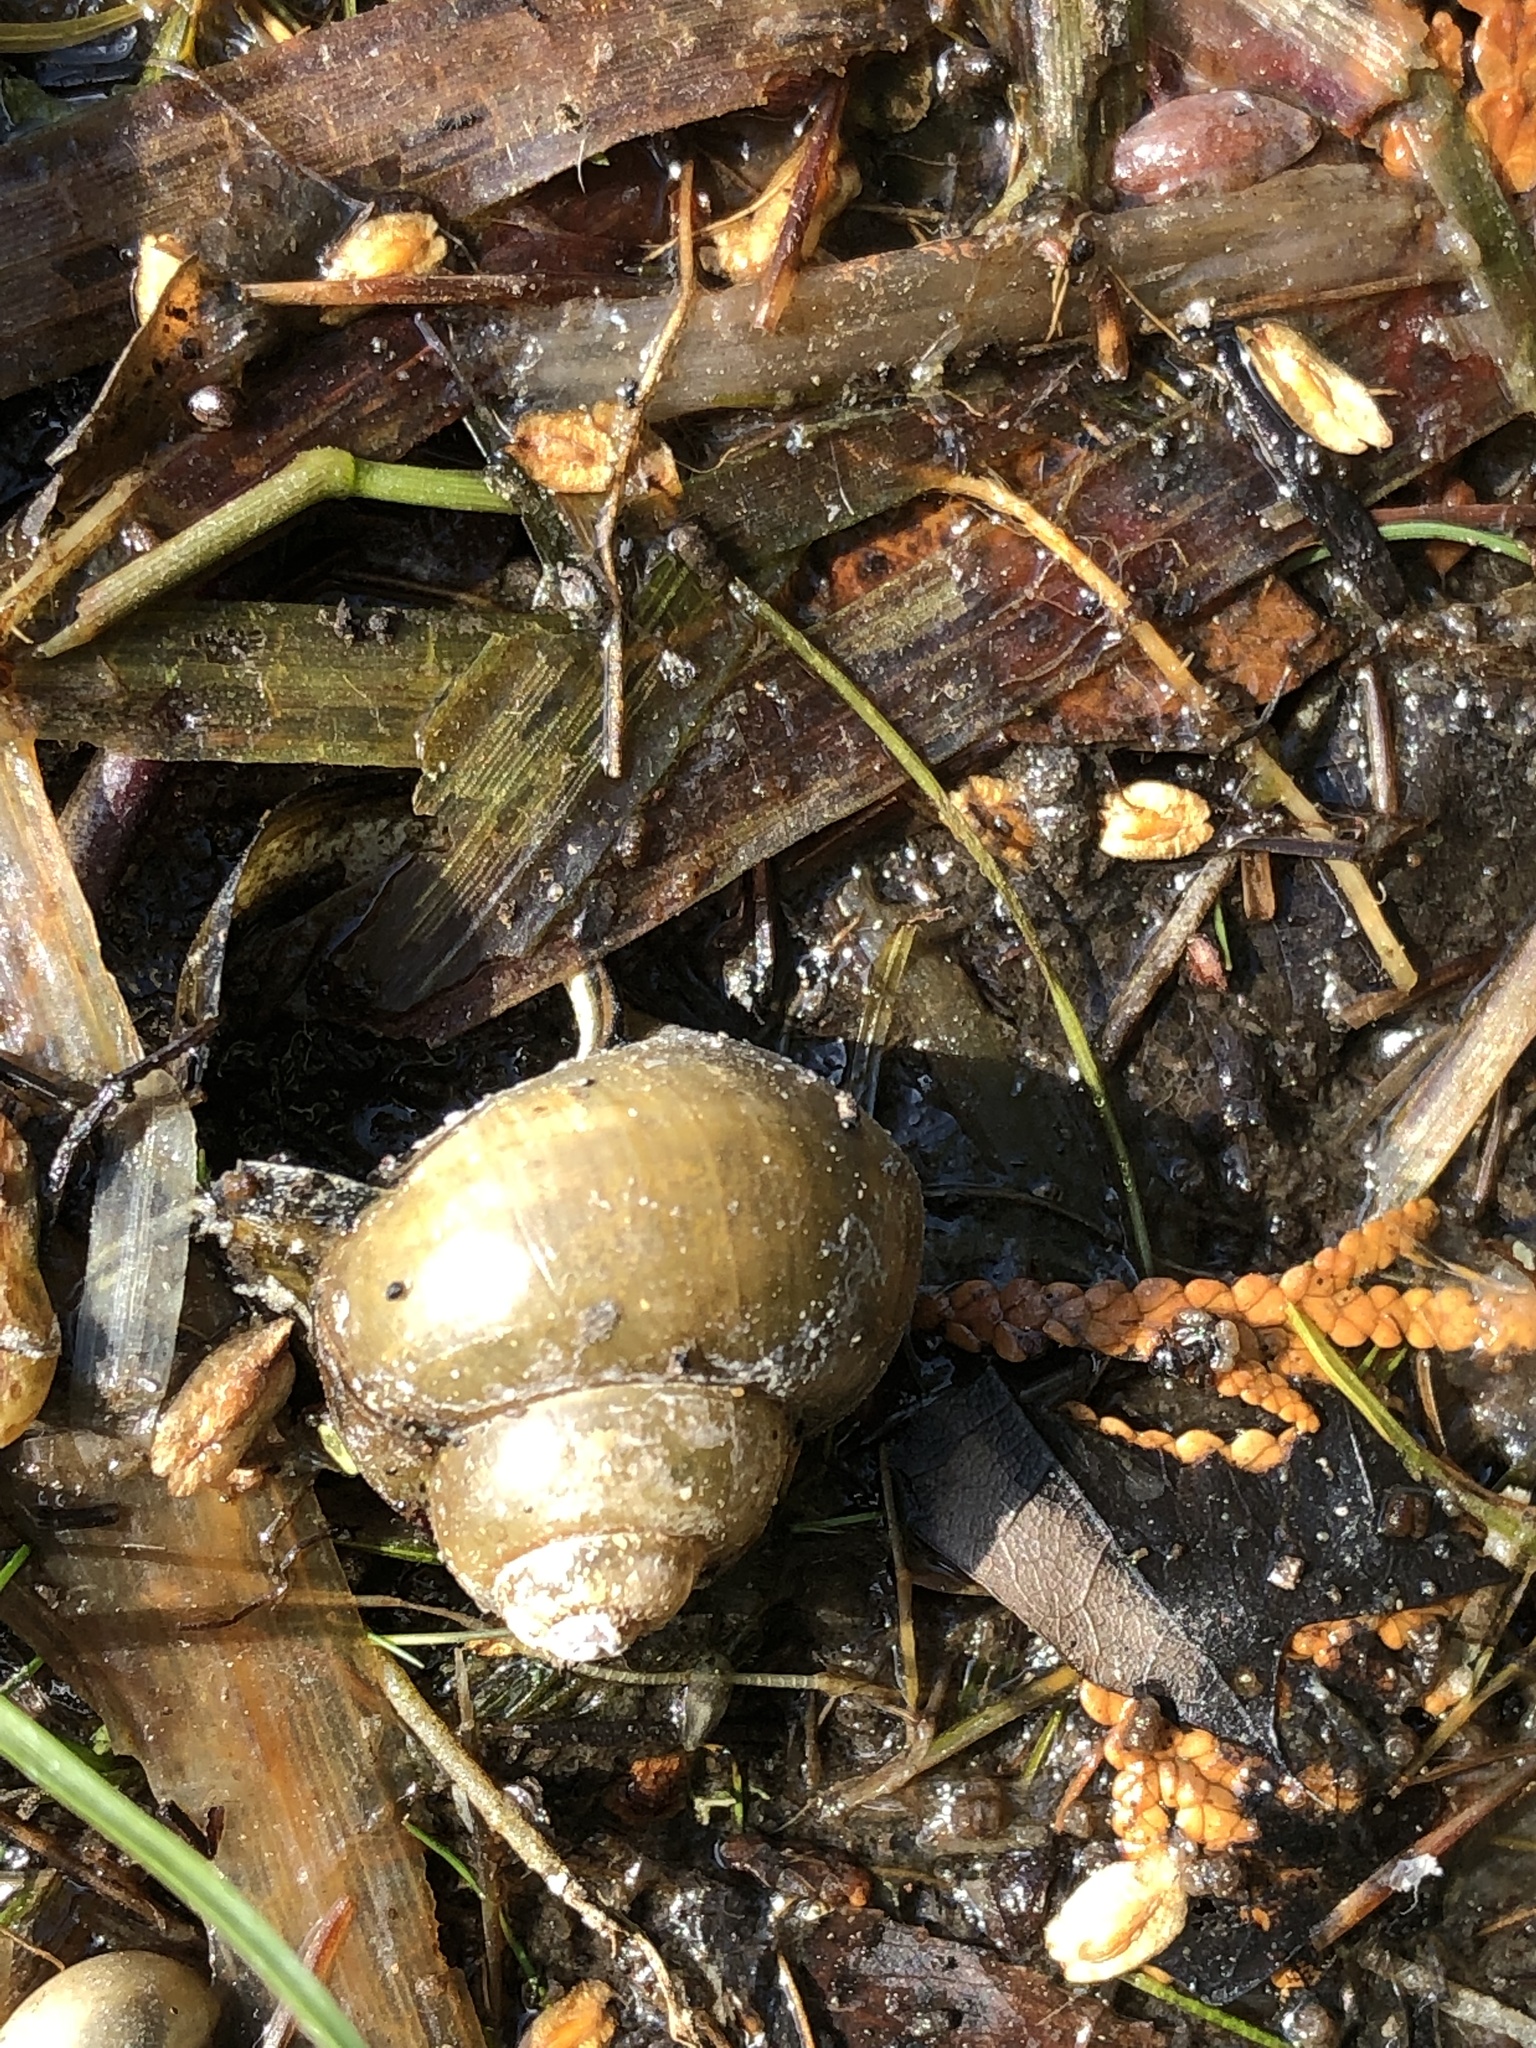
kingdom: Animalia
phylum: Mollusca
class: Gastropoda
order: Architaenioglossa
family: Viviparidae
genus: Cipangopaludina
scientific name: Cipangopaludina chinensis
